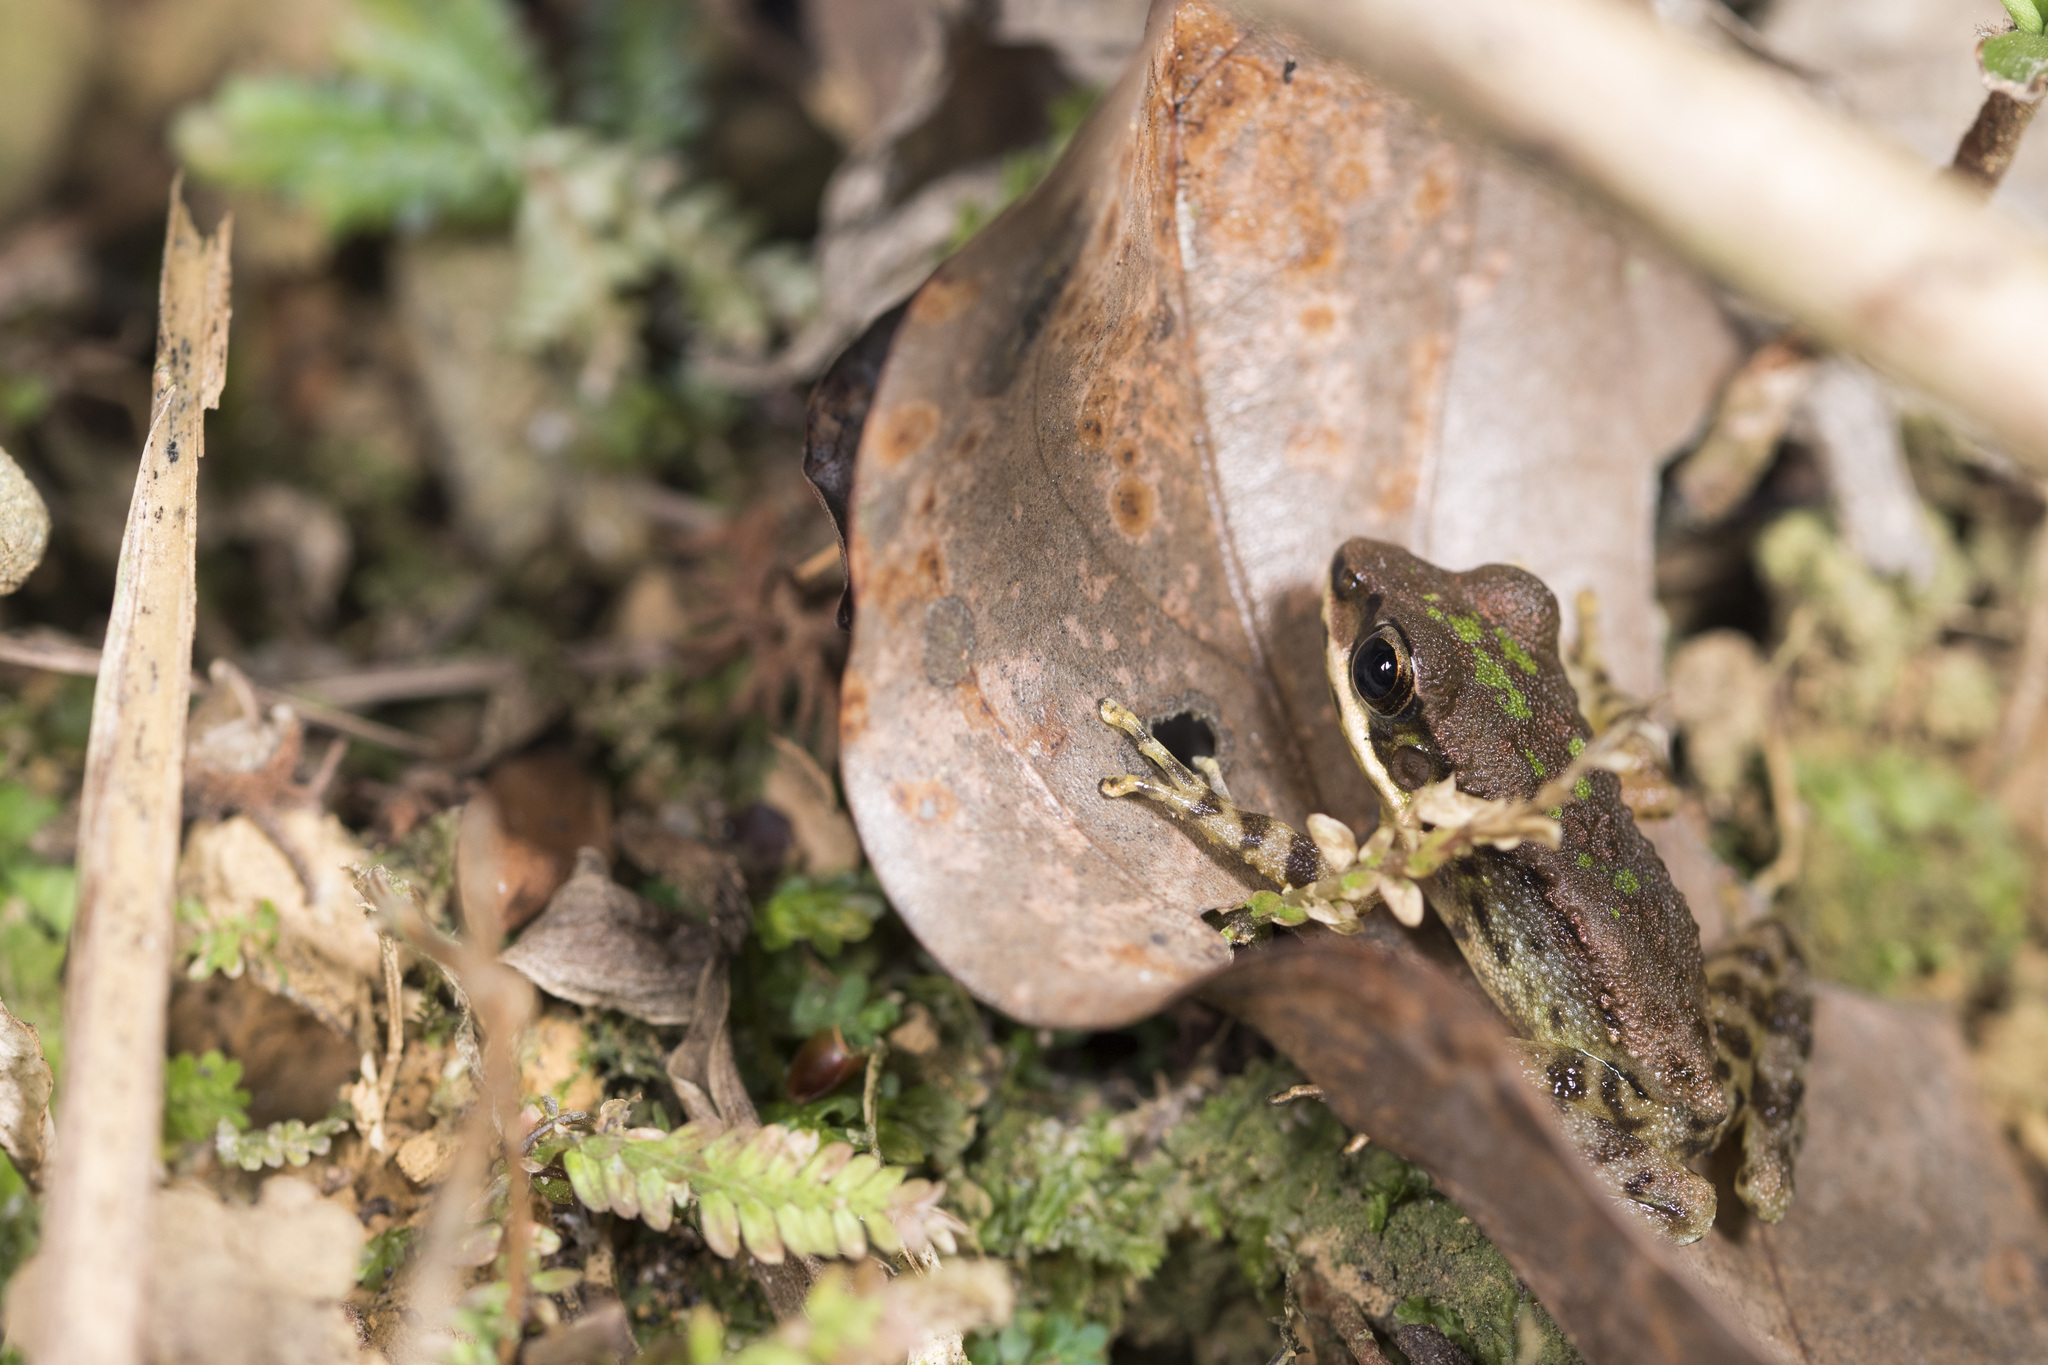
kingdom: Animalia
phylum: Chordata
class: Amphibia
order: Anura
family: Ranidae
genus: Odorrana
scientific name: Odorrana swinhoana
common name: Bangkimtsing frog
